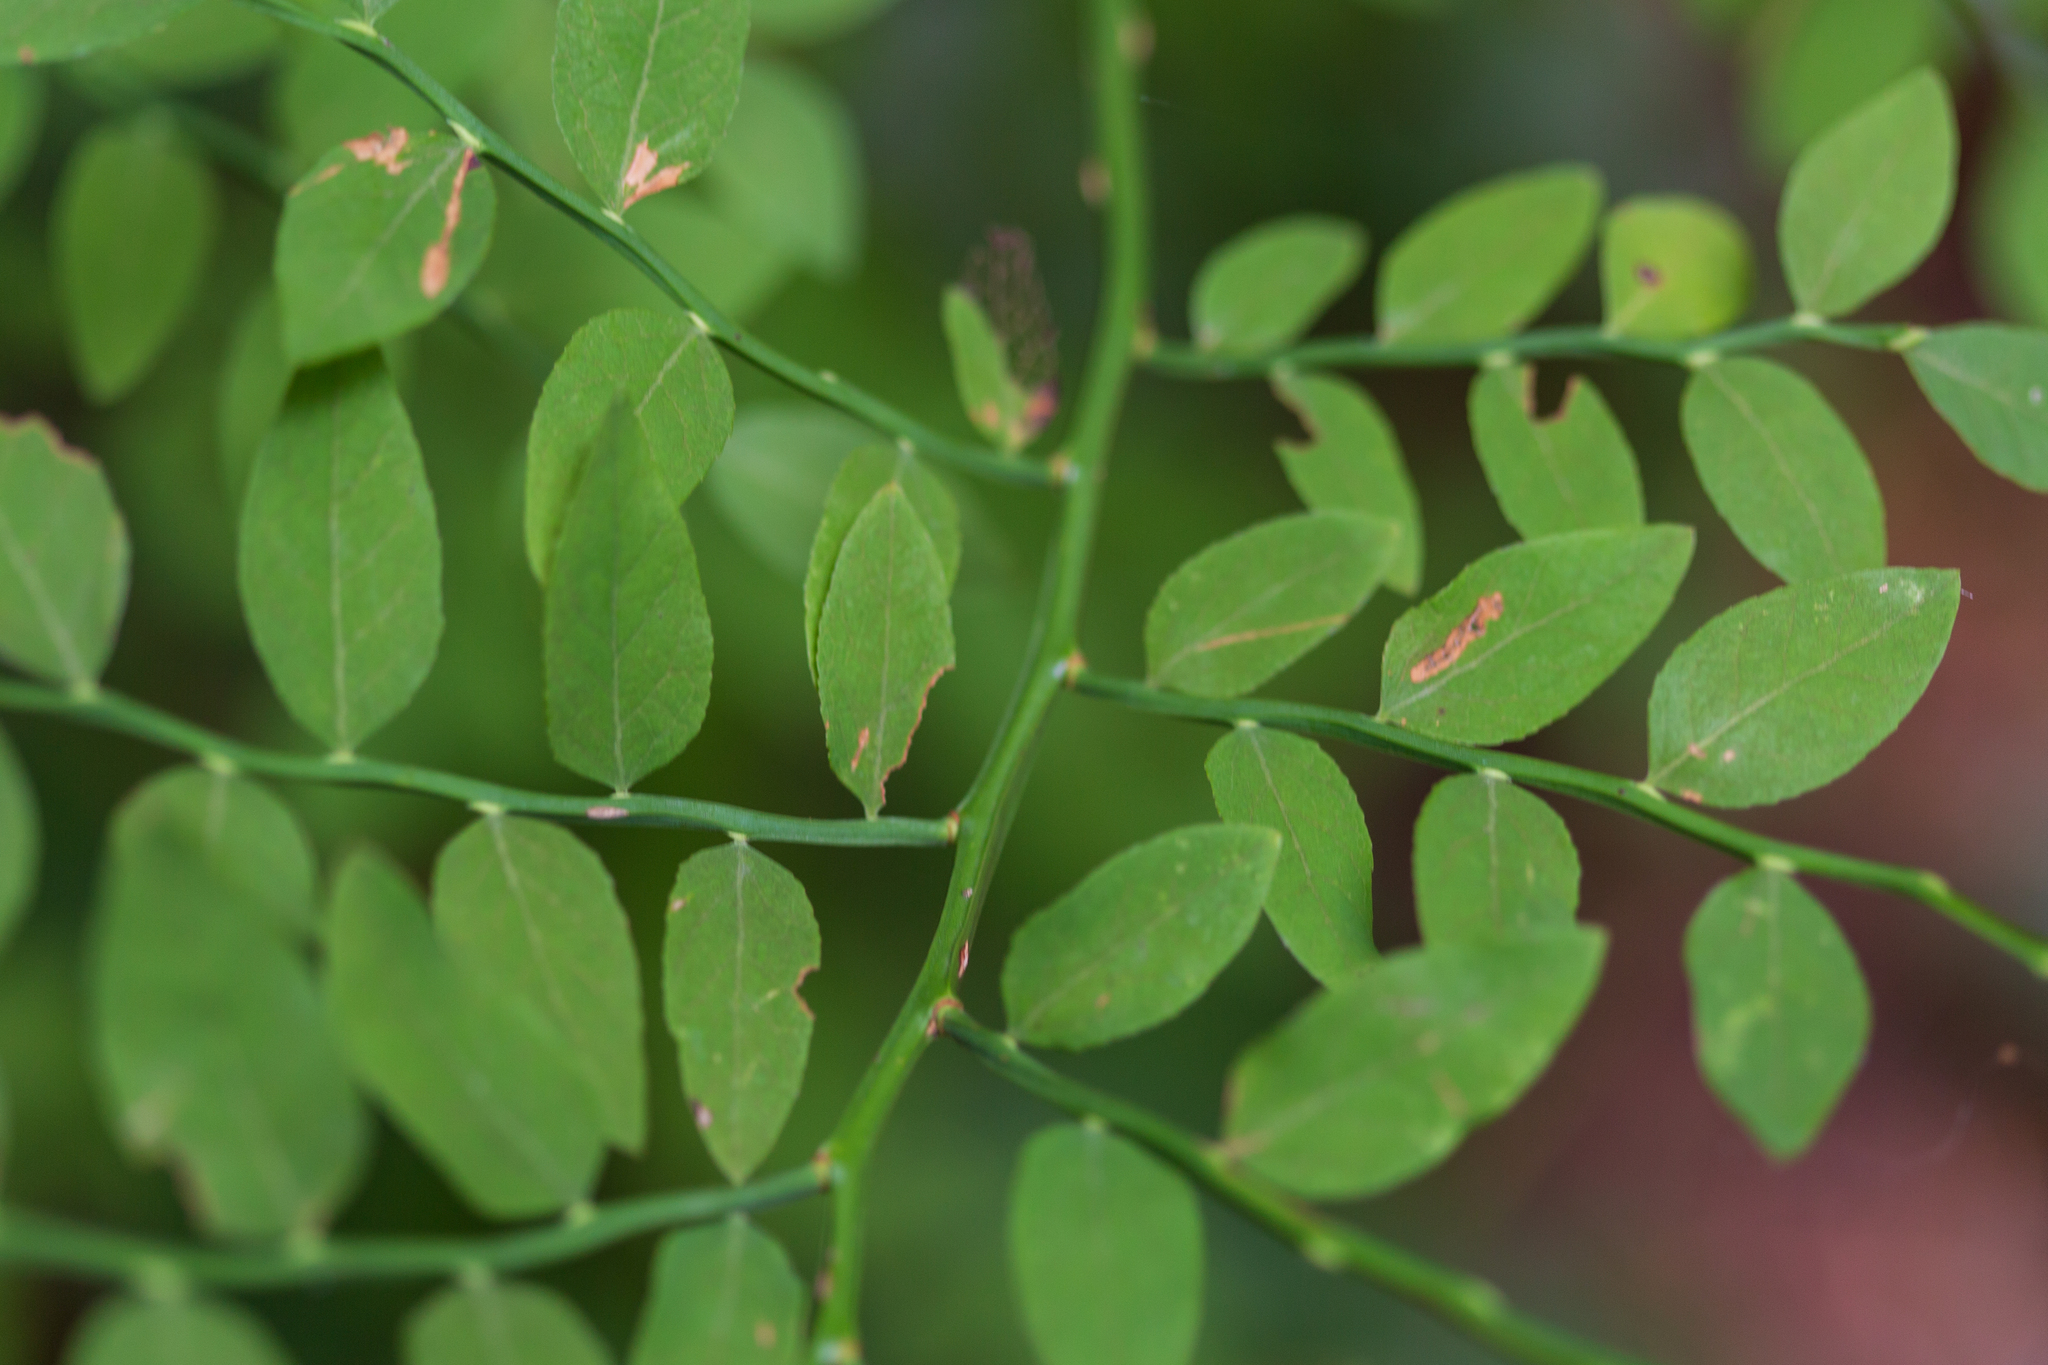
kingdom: Plantae
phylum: Tracheophyta
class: Magnoliopsida
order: Ericales
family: Ericaceae
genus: Vaccinium
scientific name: Vaccinium parvifolium
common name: Red-huckleberry
